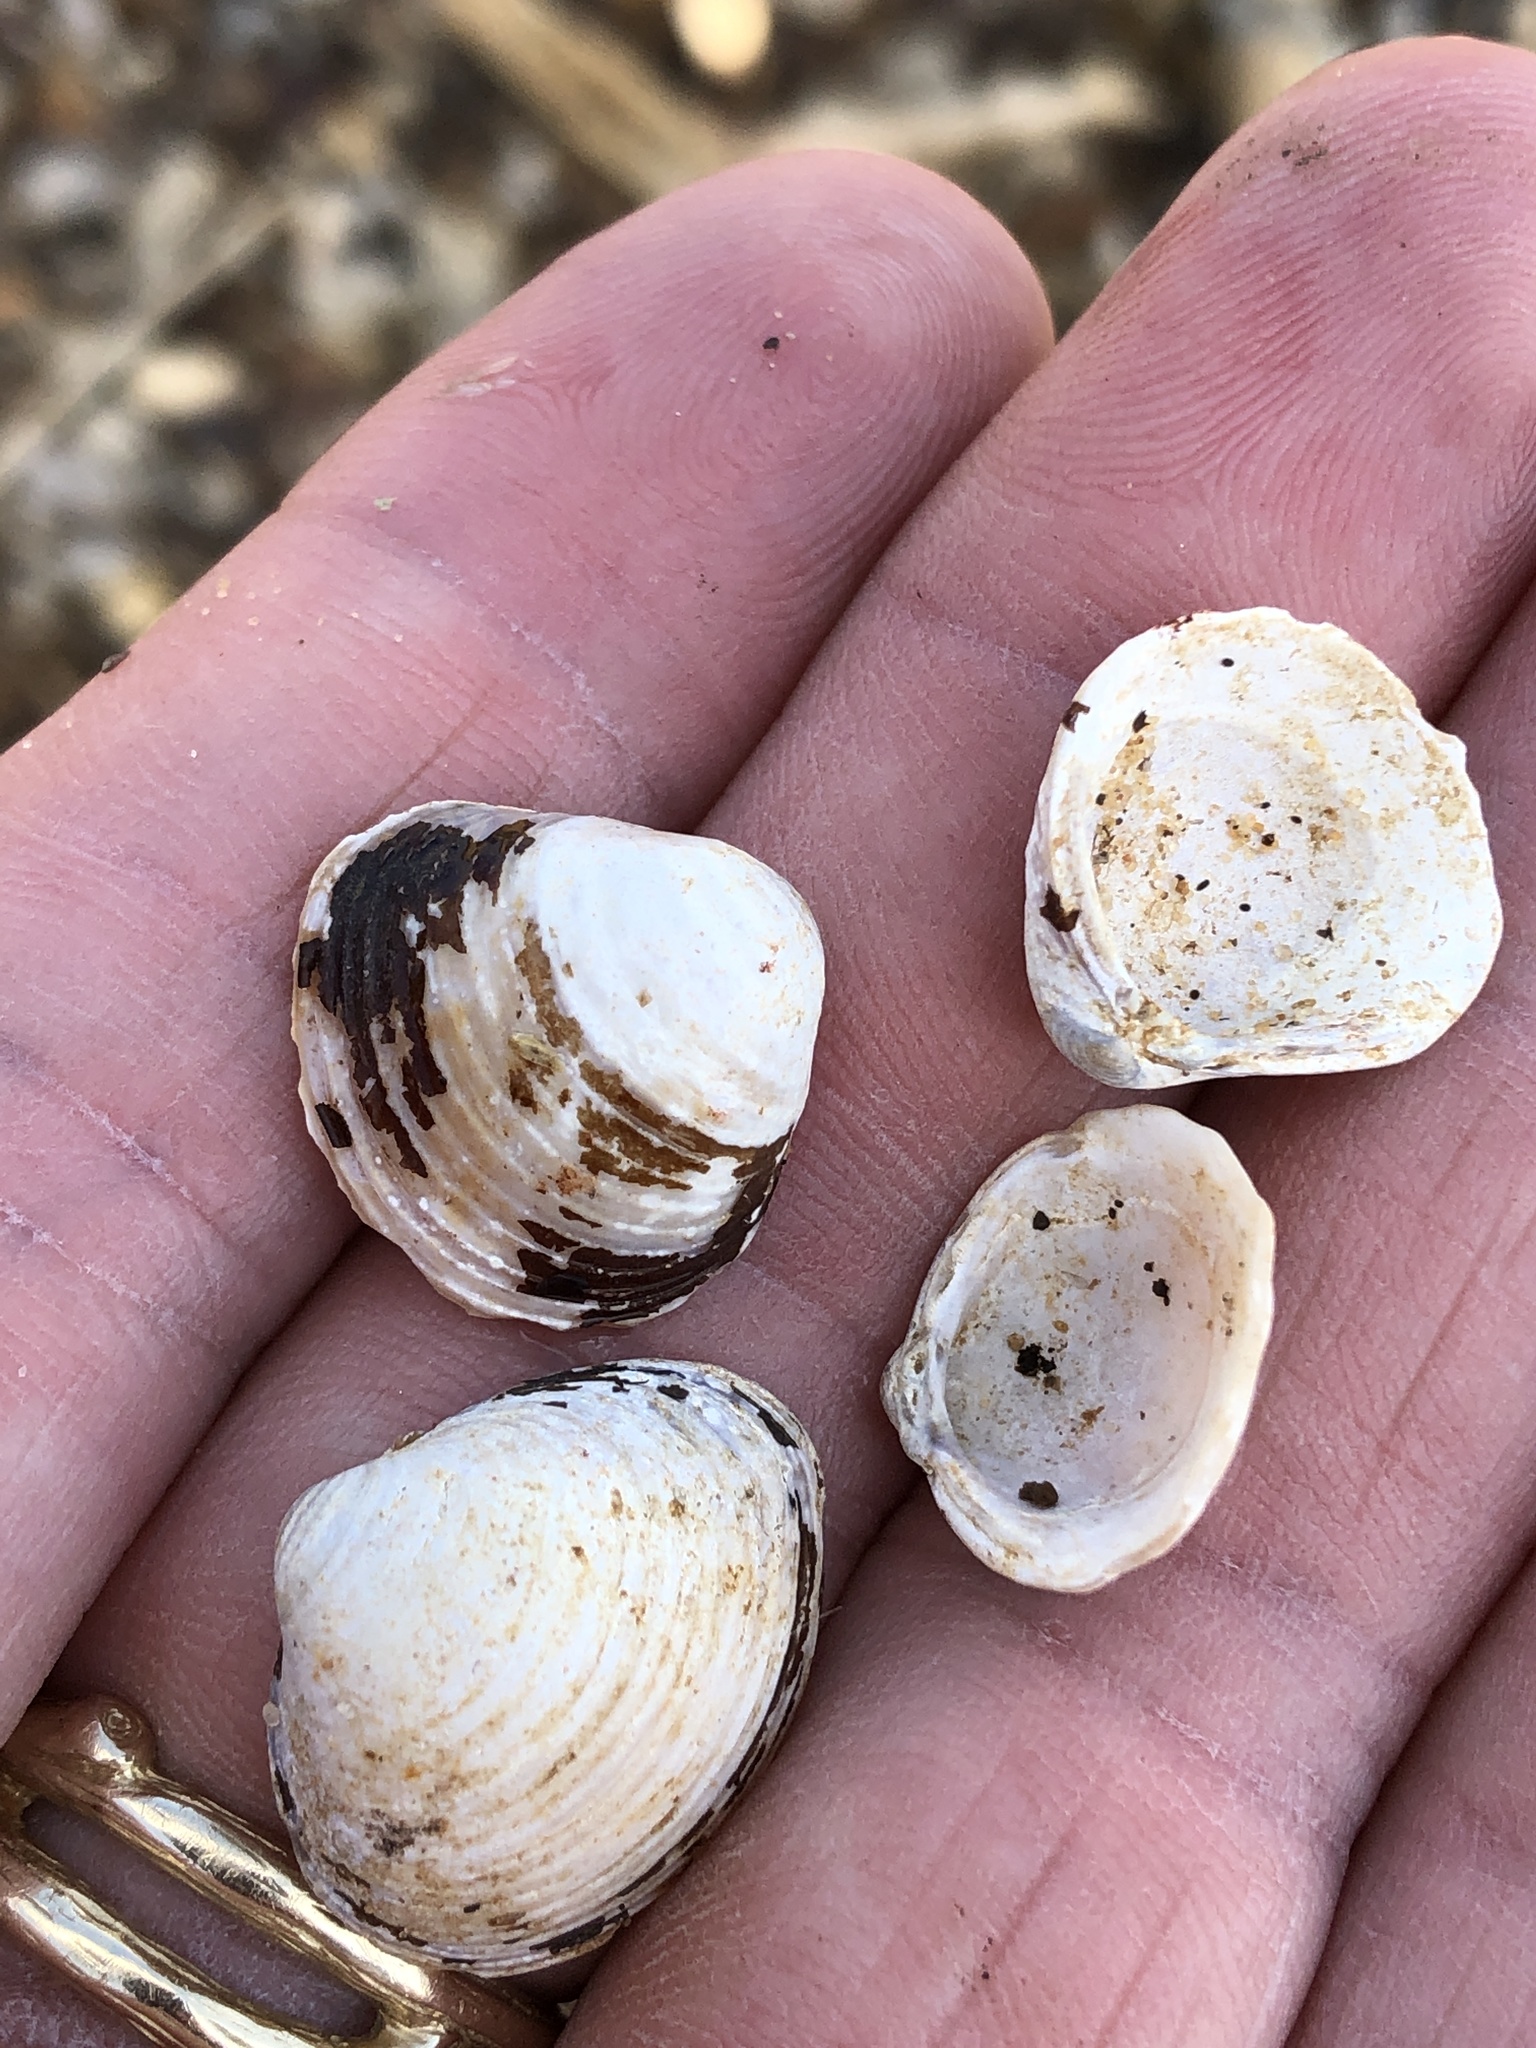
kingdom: Animalia
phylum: Mollusca
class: Bivalvia
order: Venerida
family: Cyrenidae
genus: Corbicula
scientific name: Corbicula fluminea
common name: Asian clam
